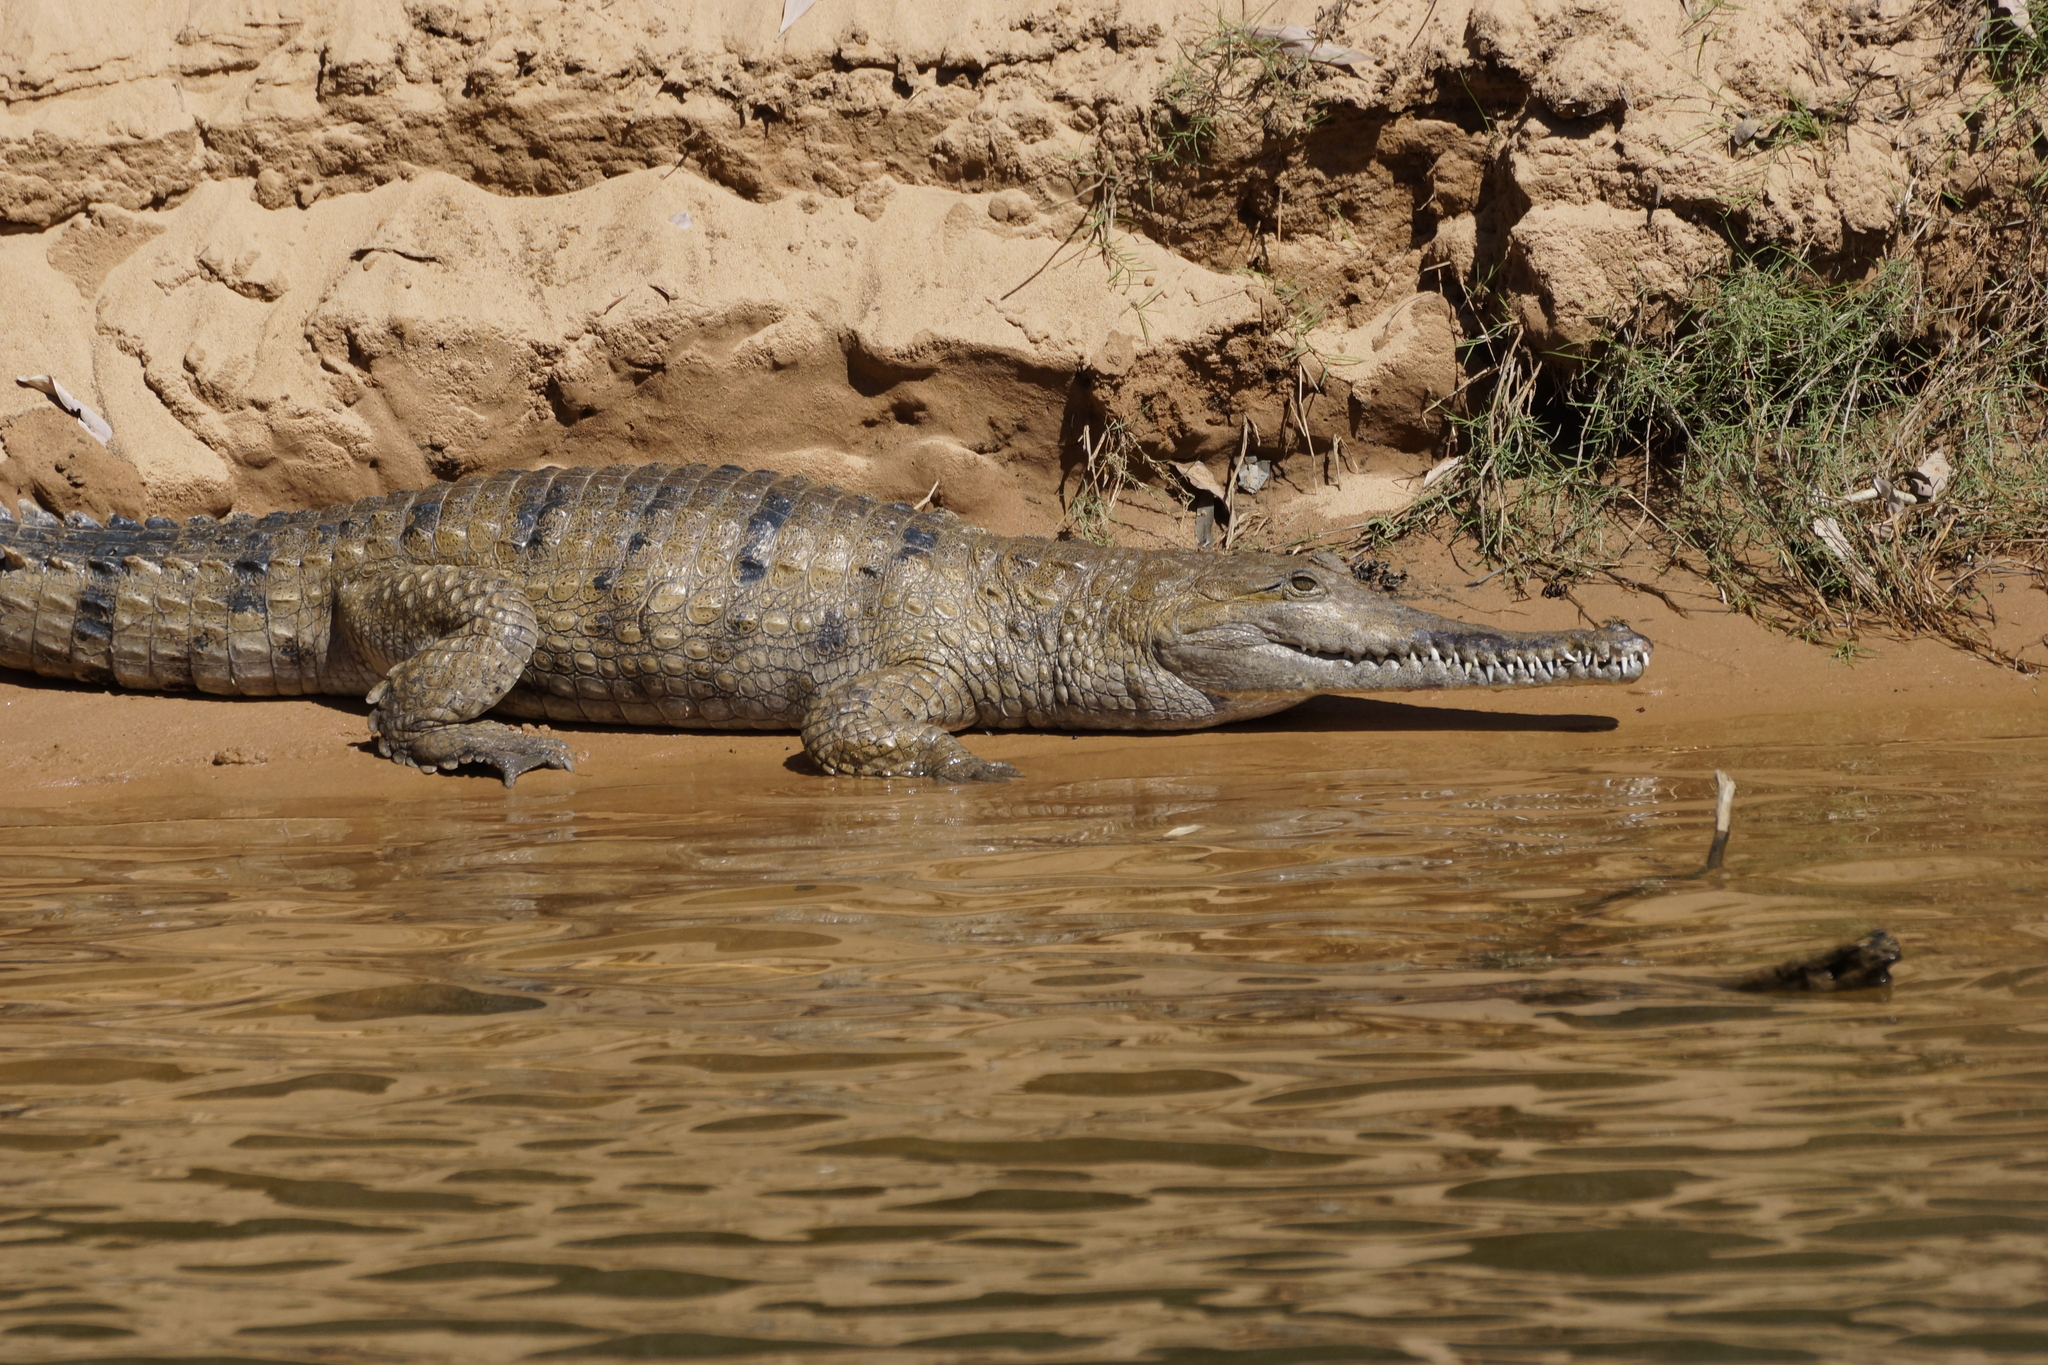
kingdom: Animalia
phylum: Chordata
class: Crocodylia
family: Crocodylidae
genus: Crocodylus
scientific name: Crocodylus johnsoni
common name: Freshwater crocodile
